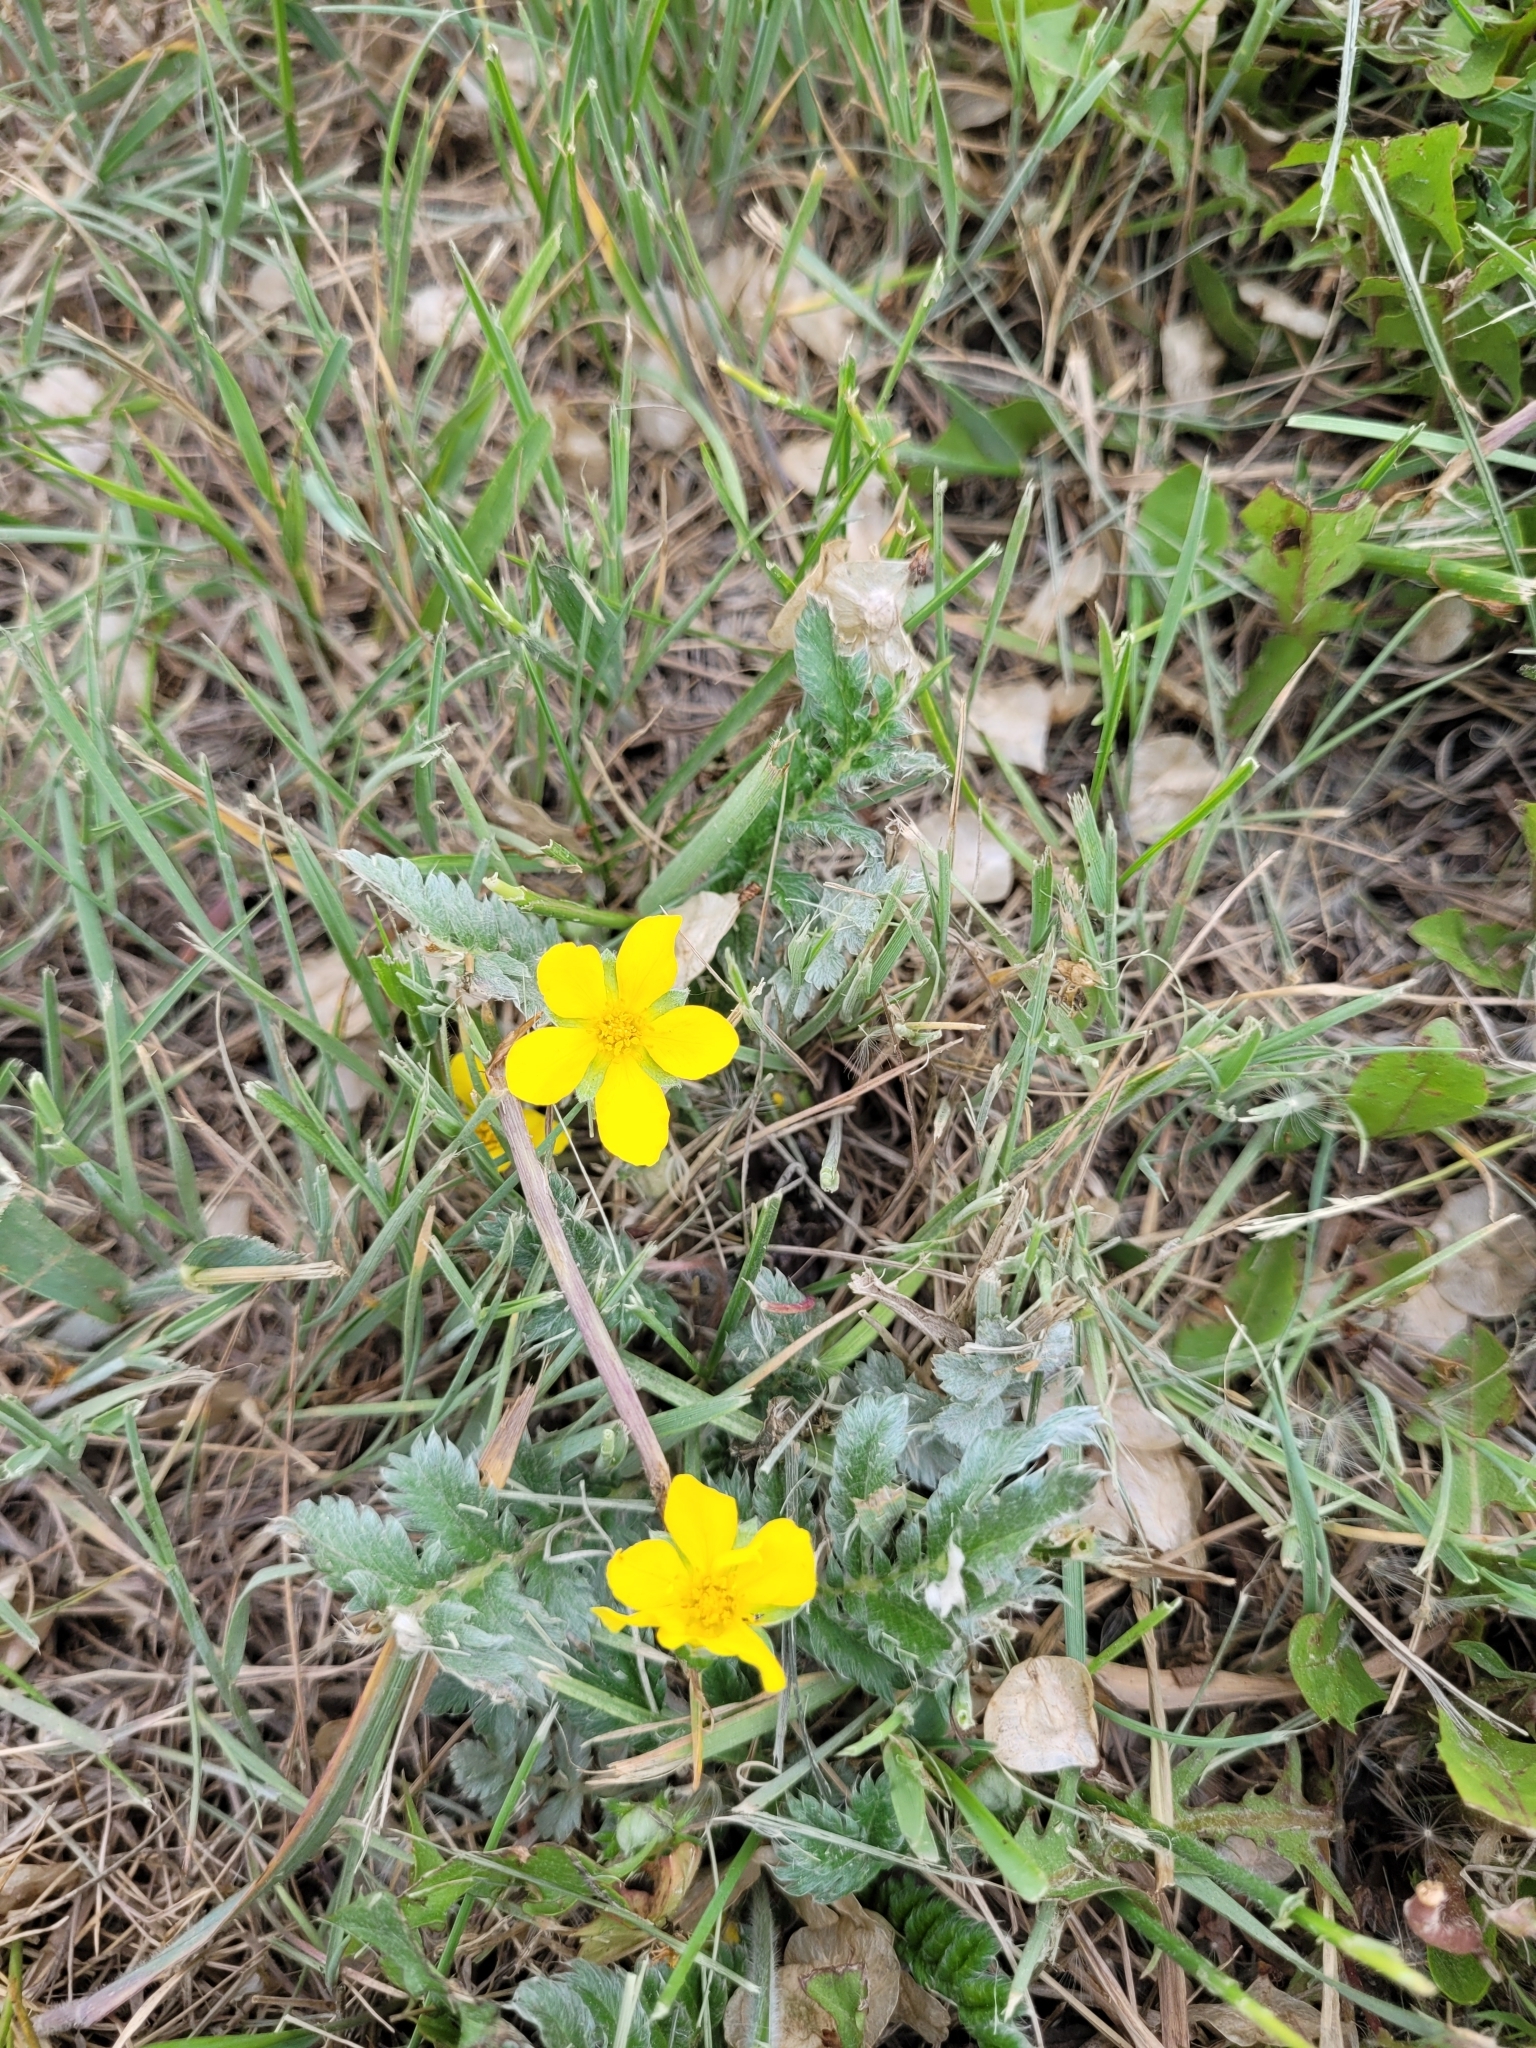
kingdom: Plantae
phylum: Tracheophyta
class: Magnoliopsida
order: Rosales
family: Rosaceae
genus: Argentina
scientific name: Argentina anserina
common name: Common silverweed
